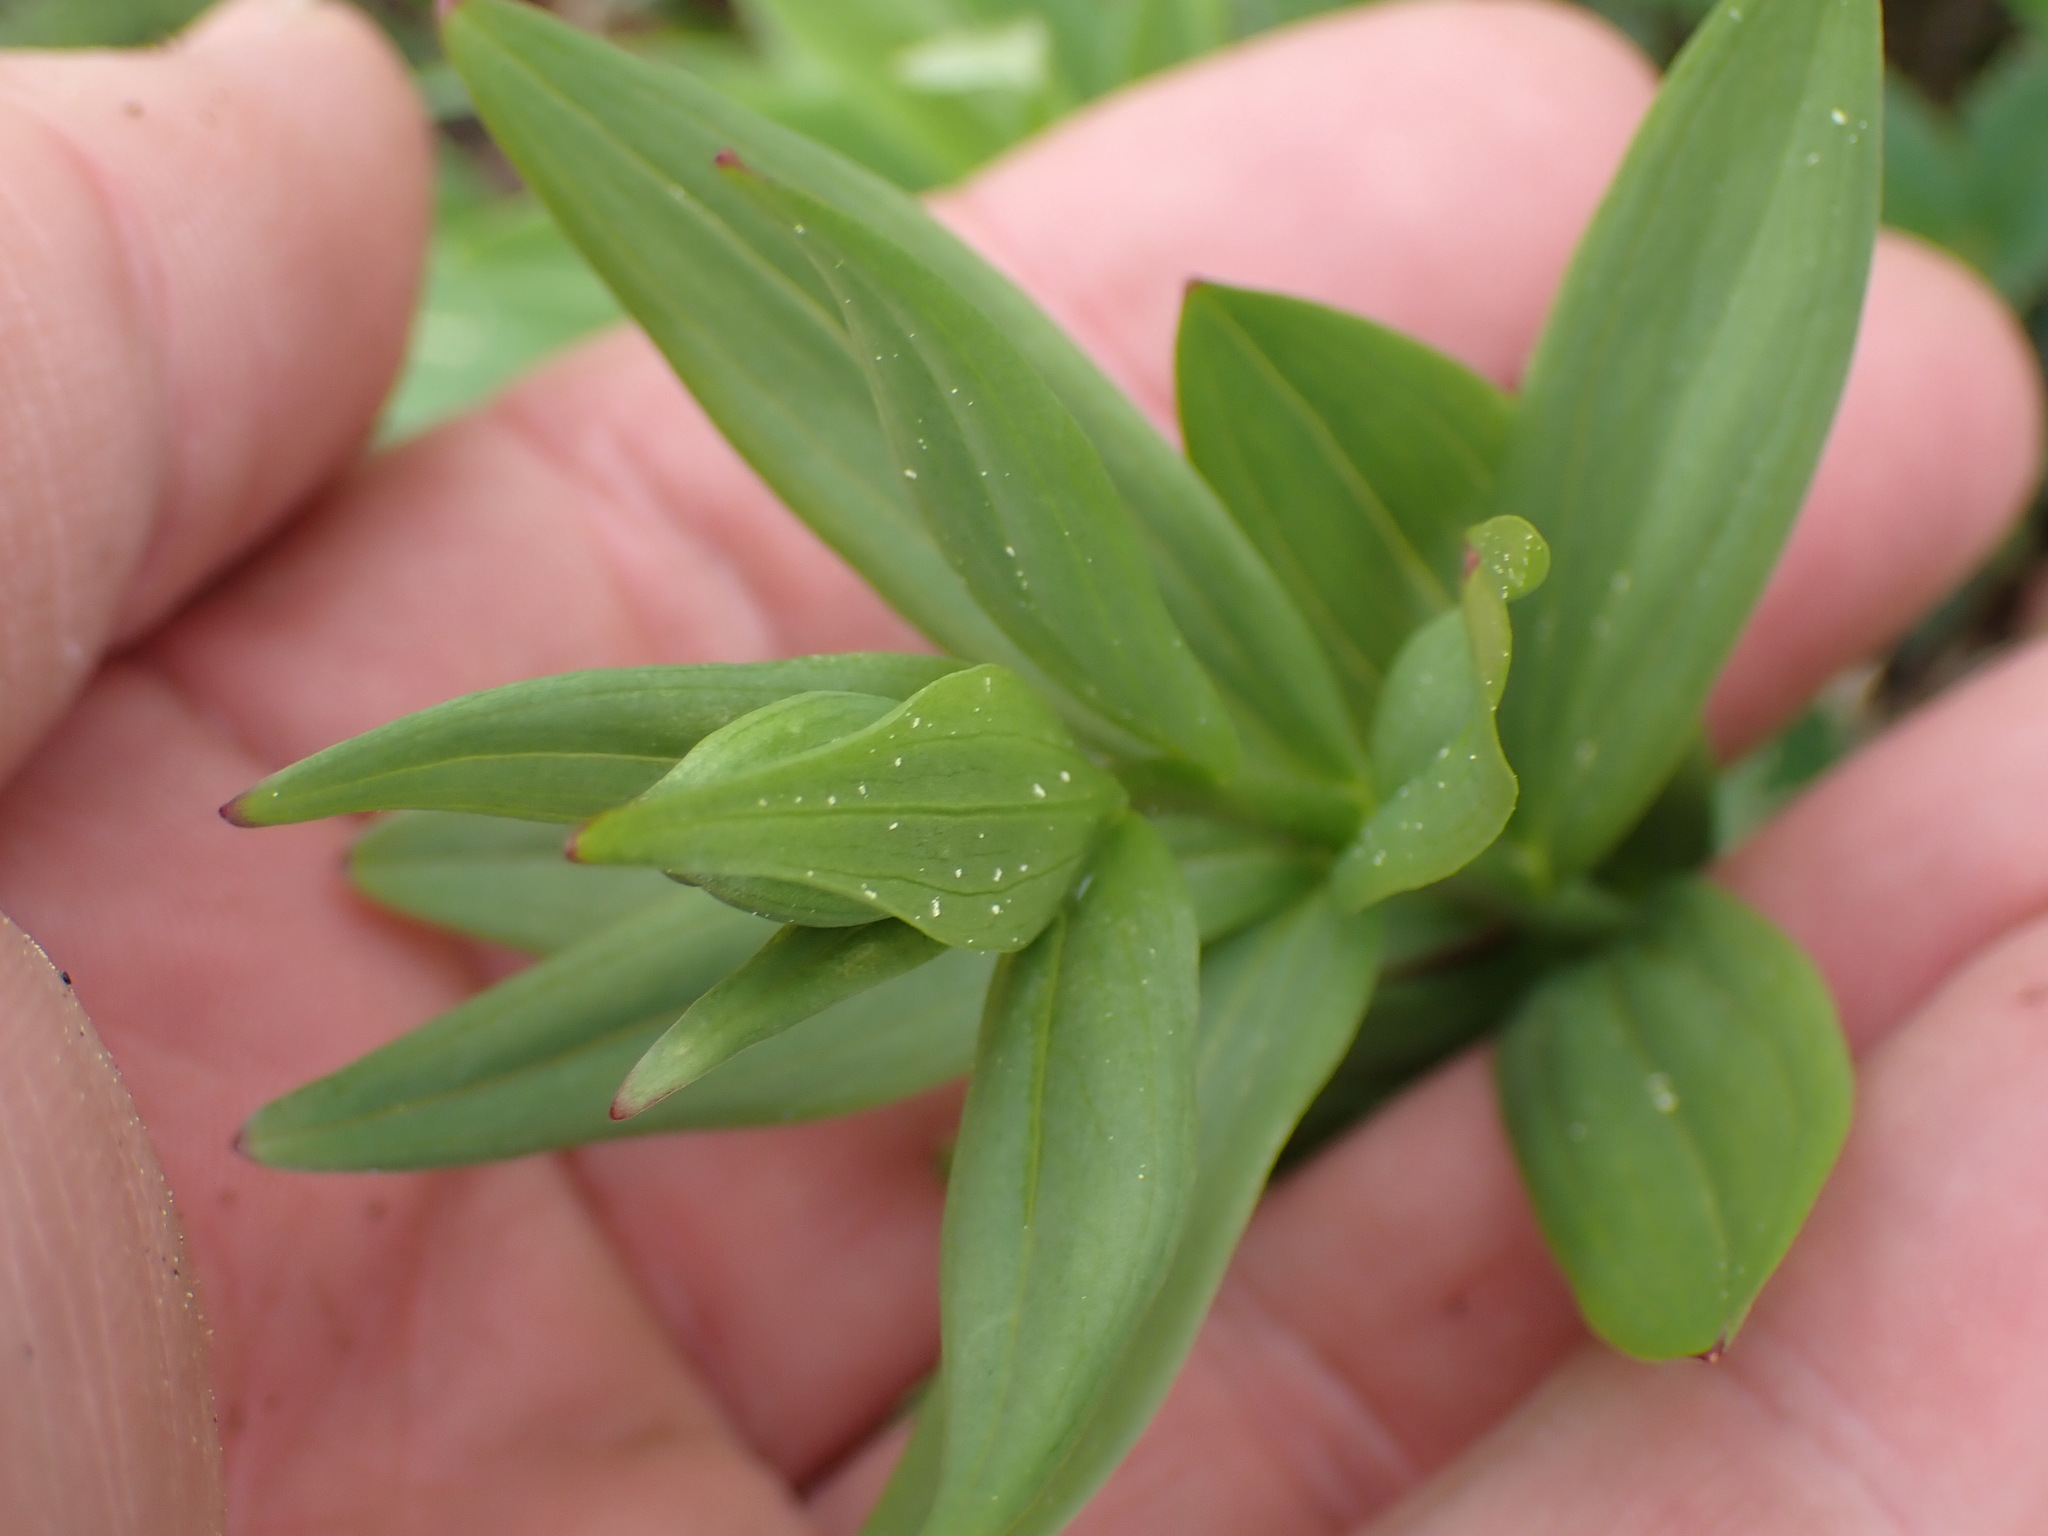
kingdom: Plantae
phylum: Tracheophyta
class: Liliopsida
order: Liliales
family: Liliaceae
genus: Lilium
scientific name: Lilium columbianum
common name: Columbia lily
